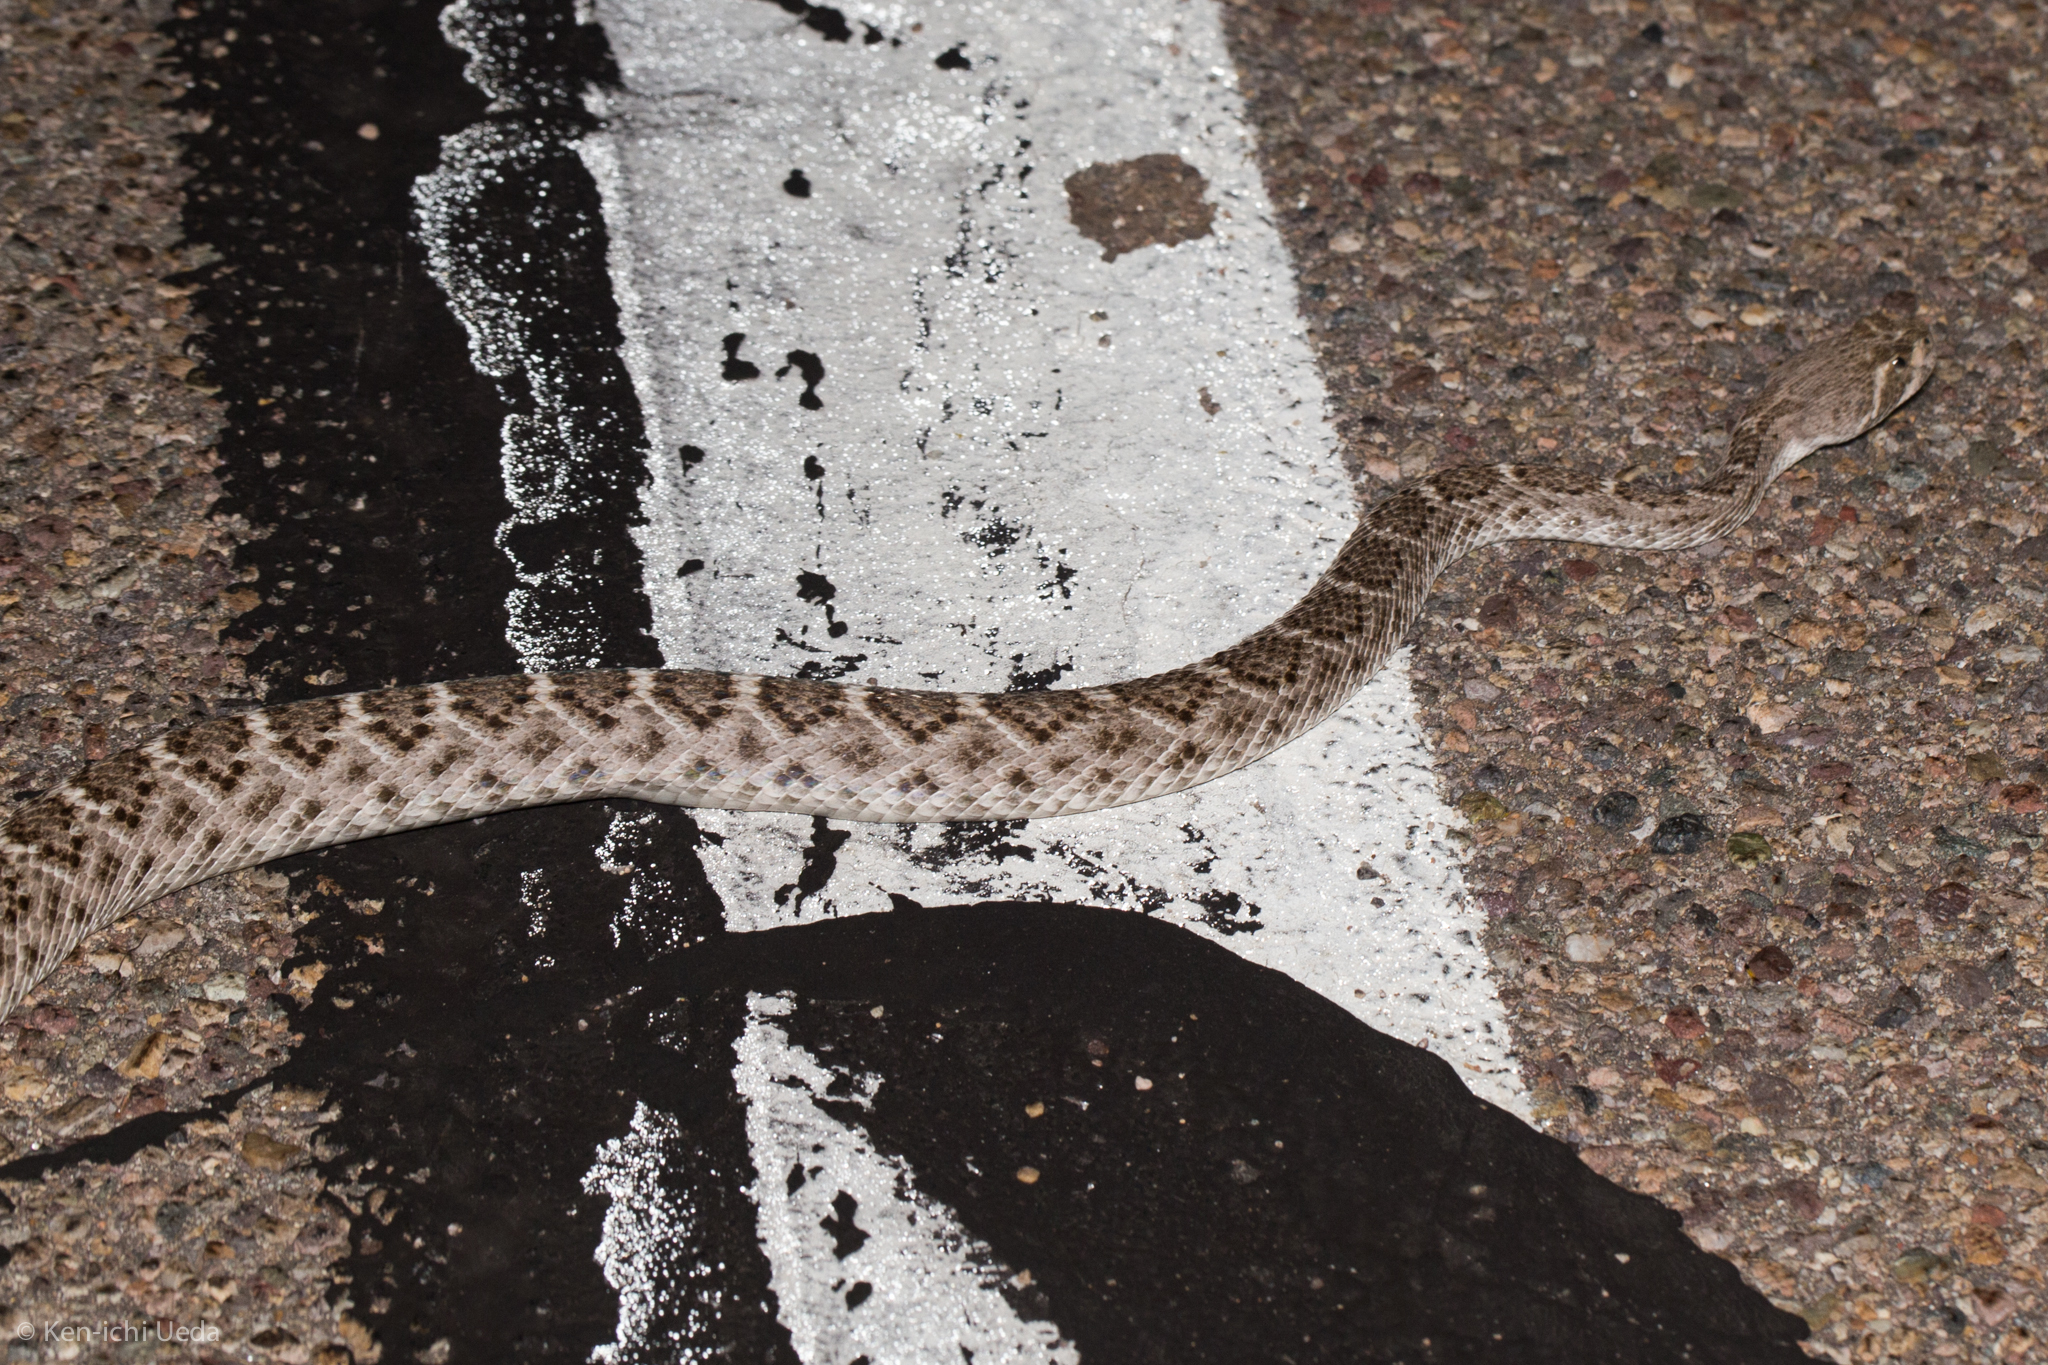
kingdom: Animalia
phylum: Chordata
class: Squamata
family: Viperidae
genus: Crotalus
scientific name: Crotalus atrox
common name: Western diamond-backed rattlesnake
